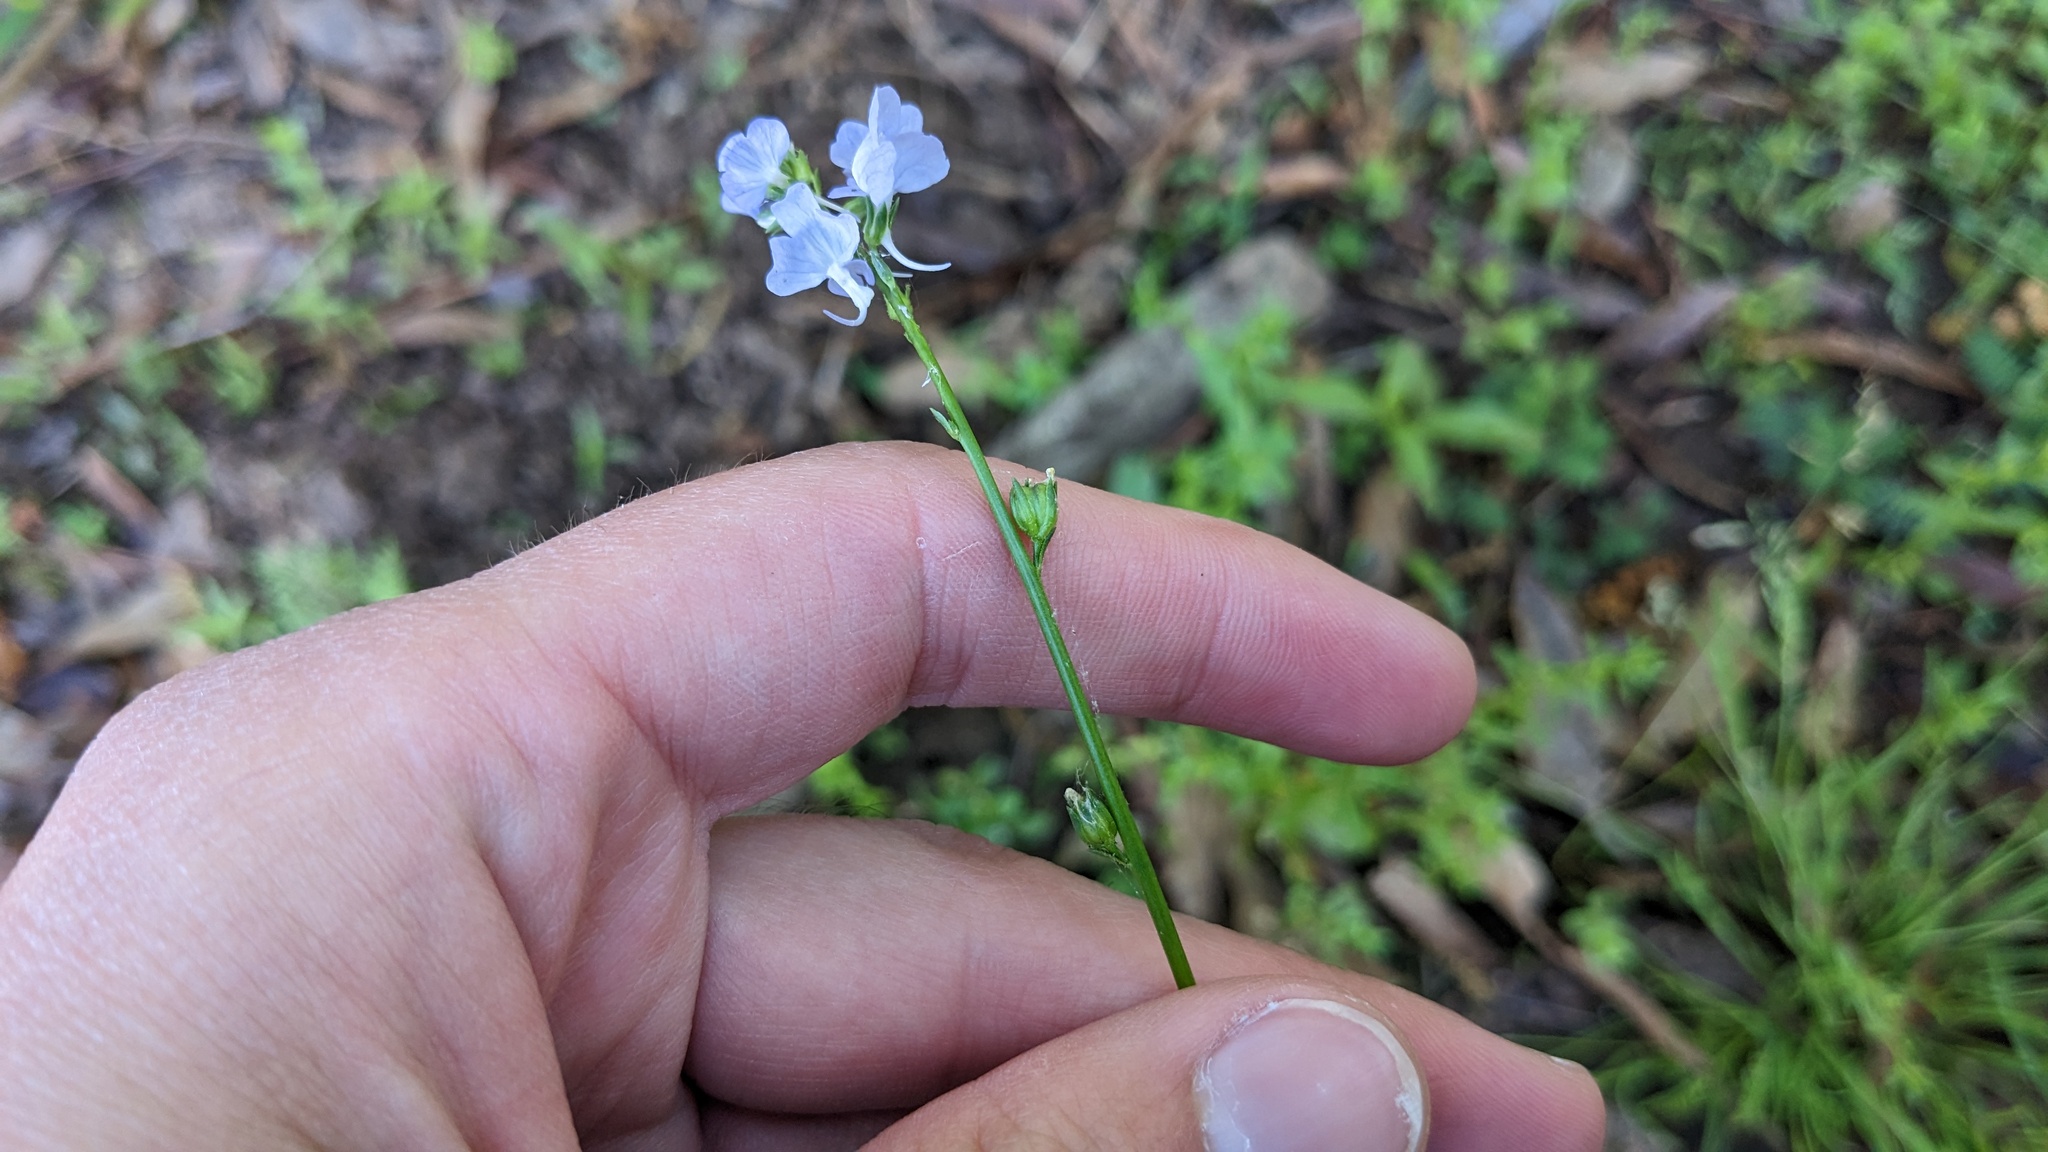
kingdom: Plantae
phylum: Tracheophyta
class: Magnoliopsida
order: Lamiales
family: Plantaginaceae
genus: Nuttallanthus
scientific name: Nuttallanthus texanus
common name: Texas toadflax
